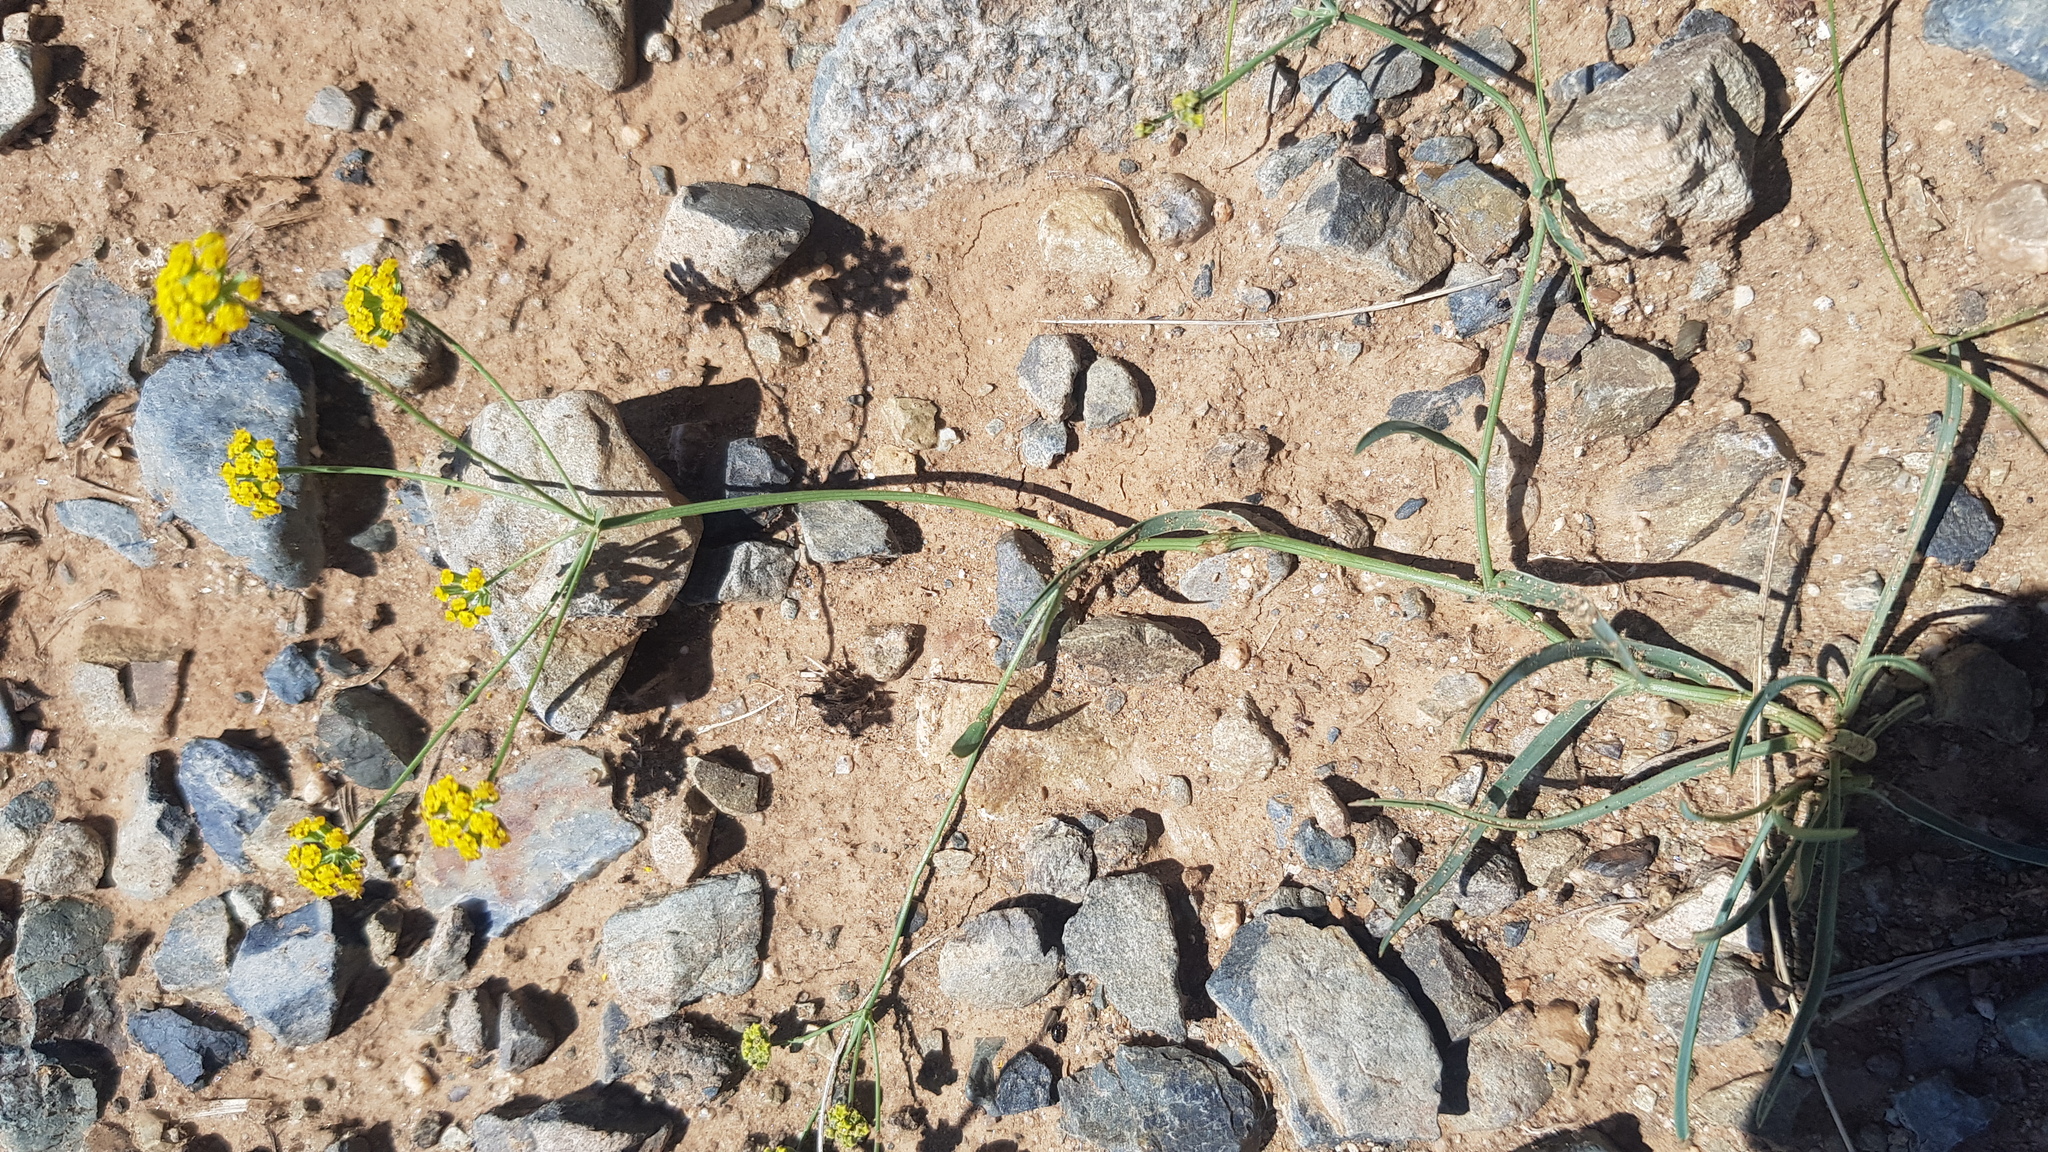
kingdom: Plantae
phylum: Tracheophyta
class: Magnoliopsida
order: Apiales
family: Apiaceae
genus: Bupleurum
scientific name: Bupleurum bicaule
